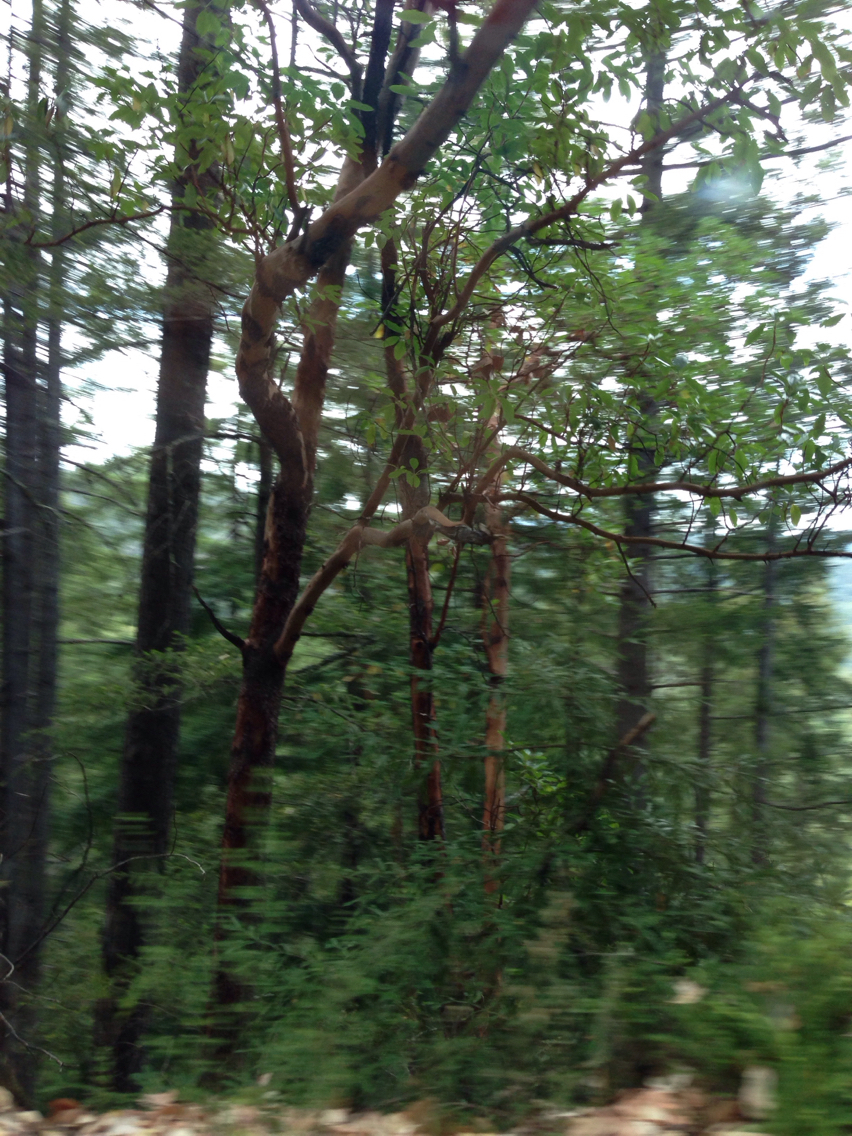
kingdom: Plantae
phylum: Tracheophyta
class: Magnoliopsida
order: Ericales
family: Ericaceae
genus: Arbutus
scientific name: Arbutus menziesii
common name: Pacific madrone
